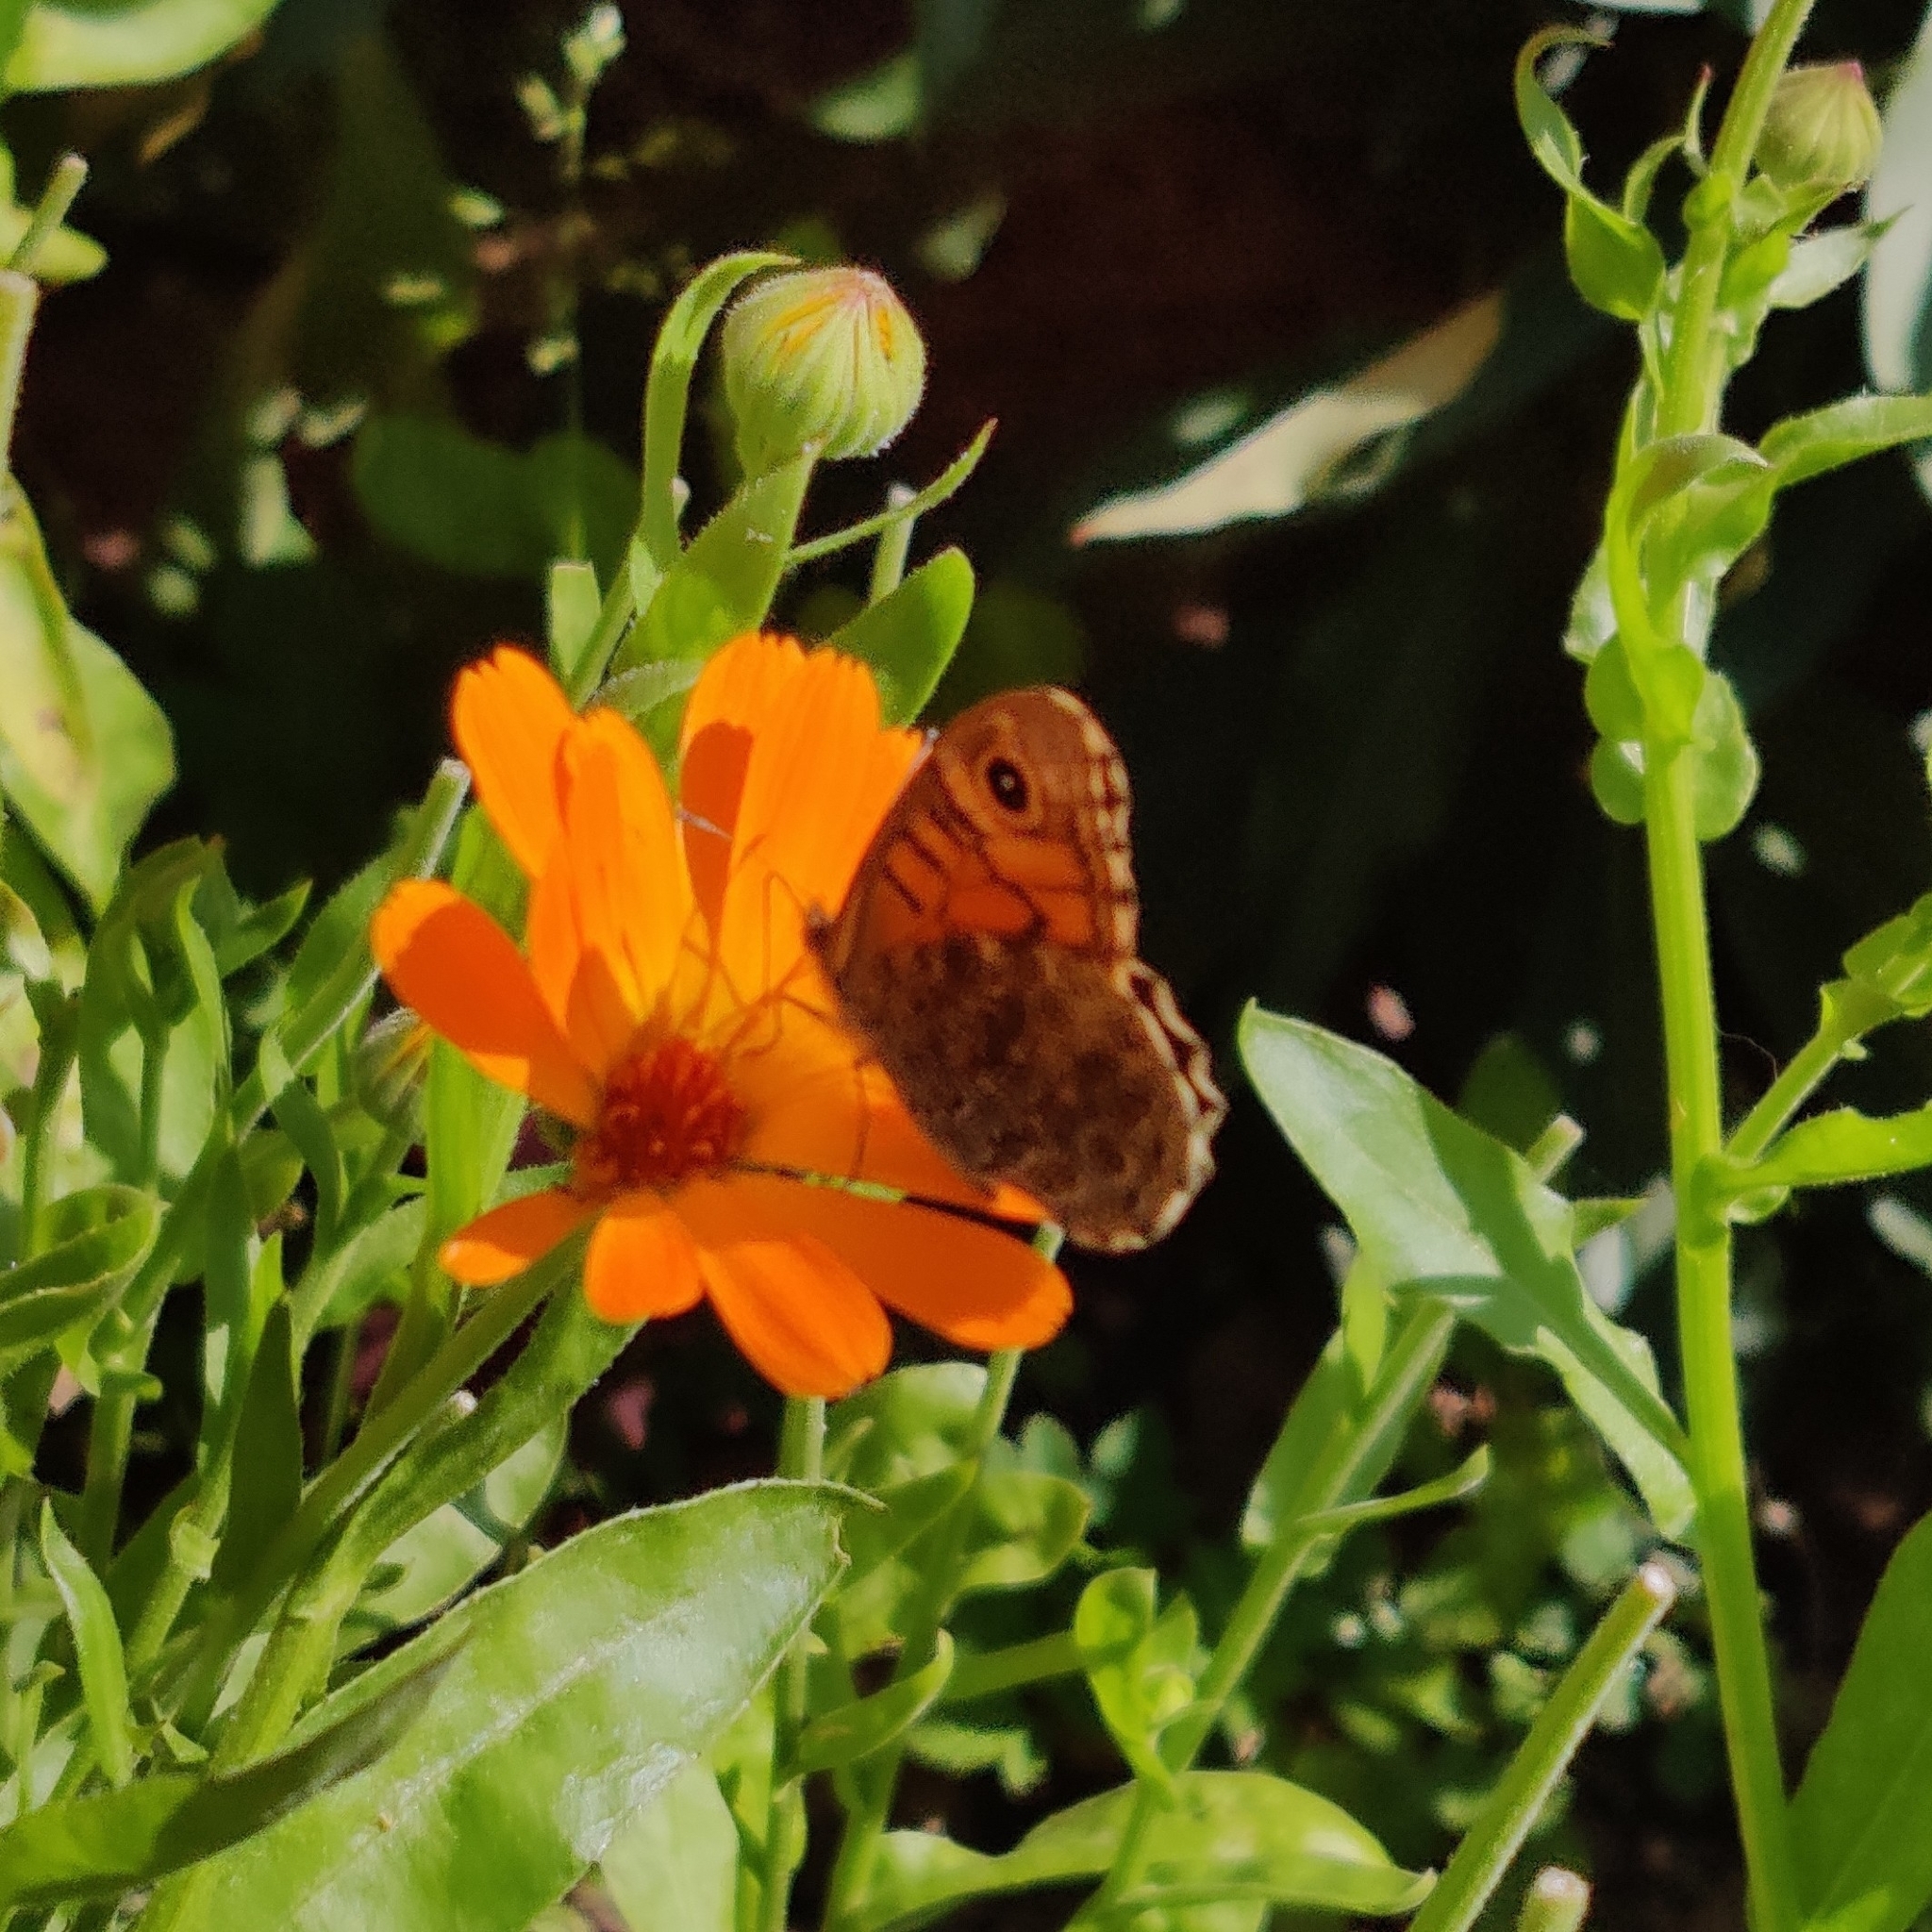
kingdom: Animalia
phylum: Arthropoda
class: Insecta
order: Lepidoptera
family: Nymphalidae
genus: Pararge
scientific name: Pararge Lasiommata megera
